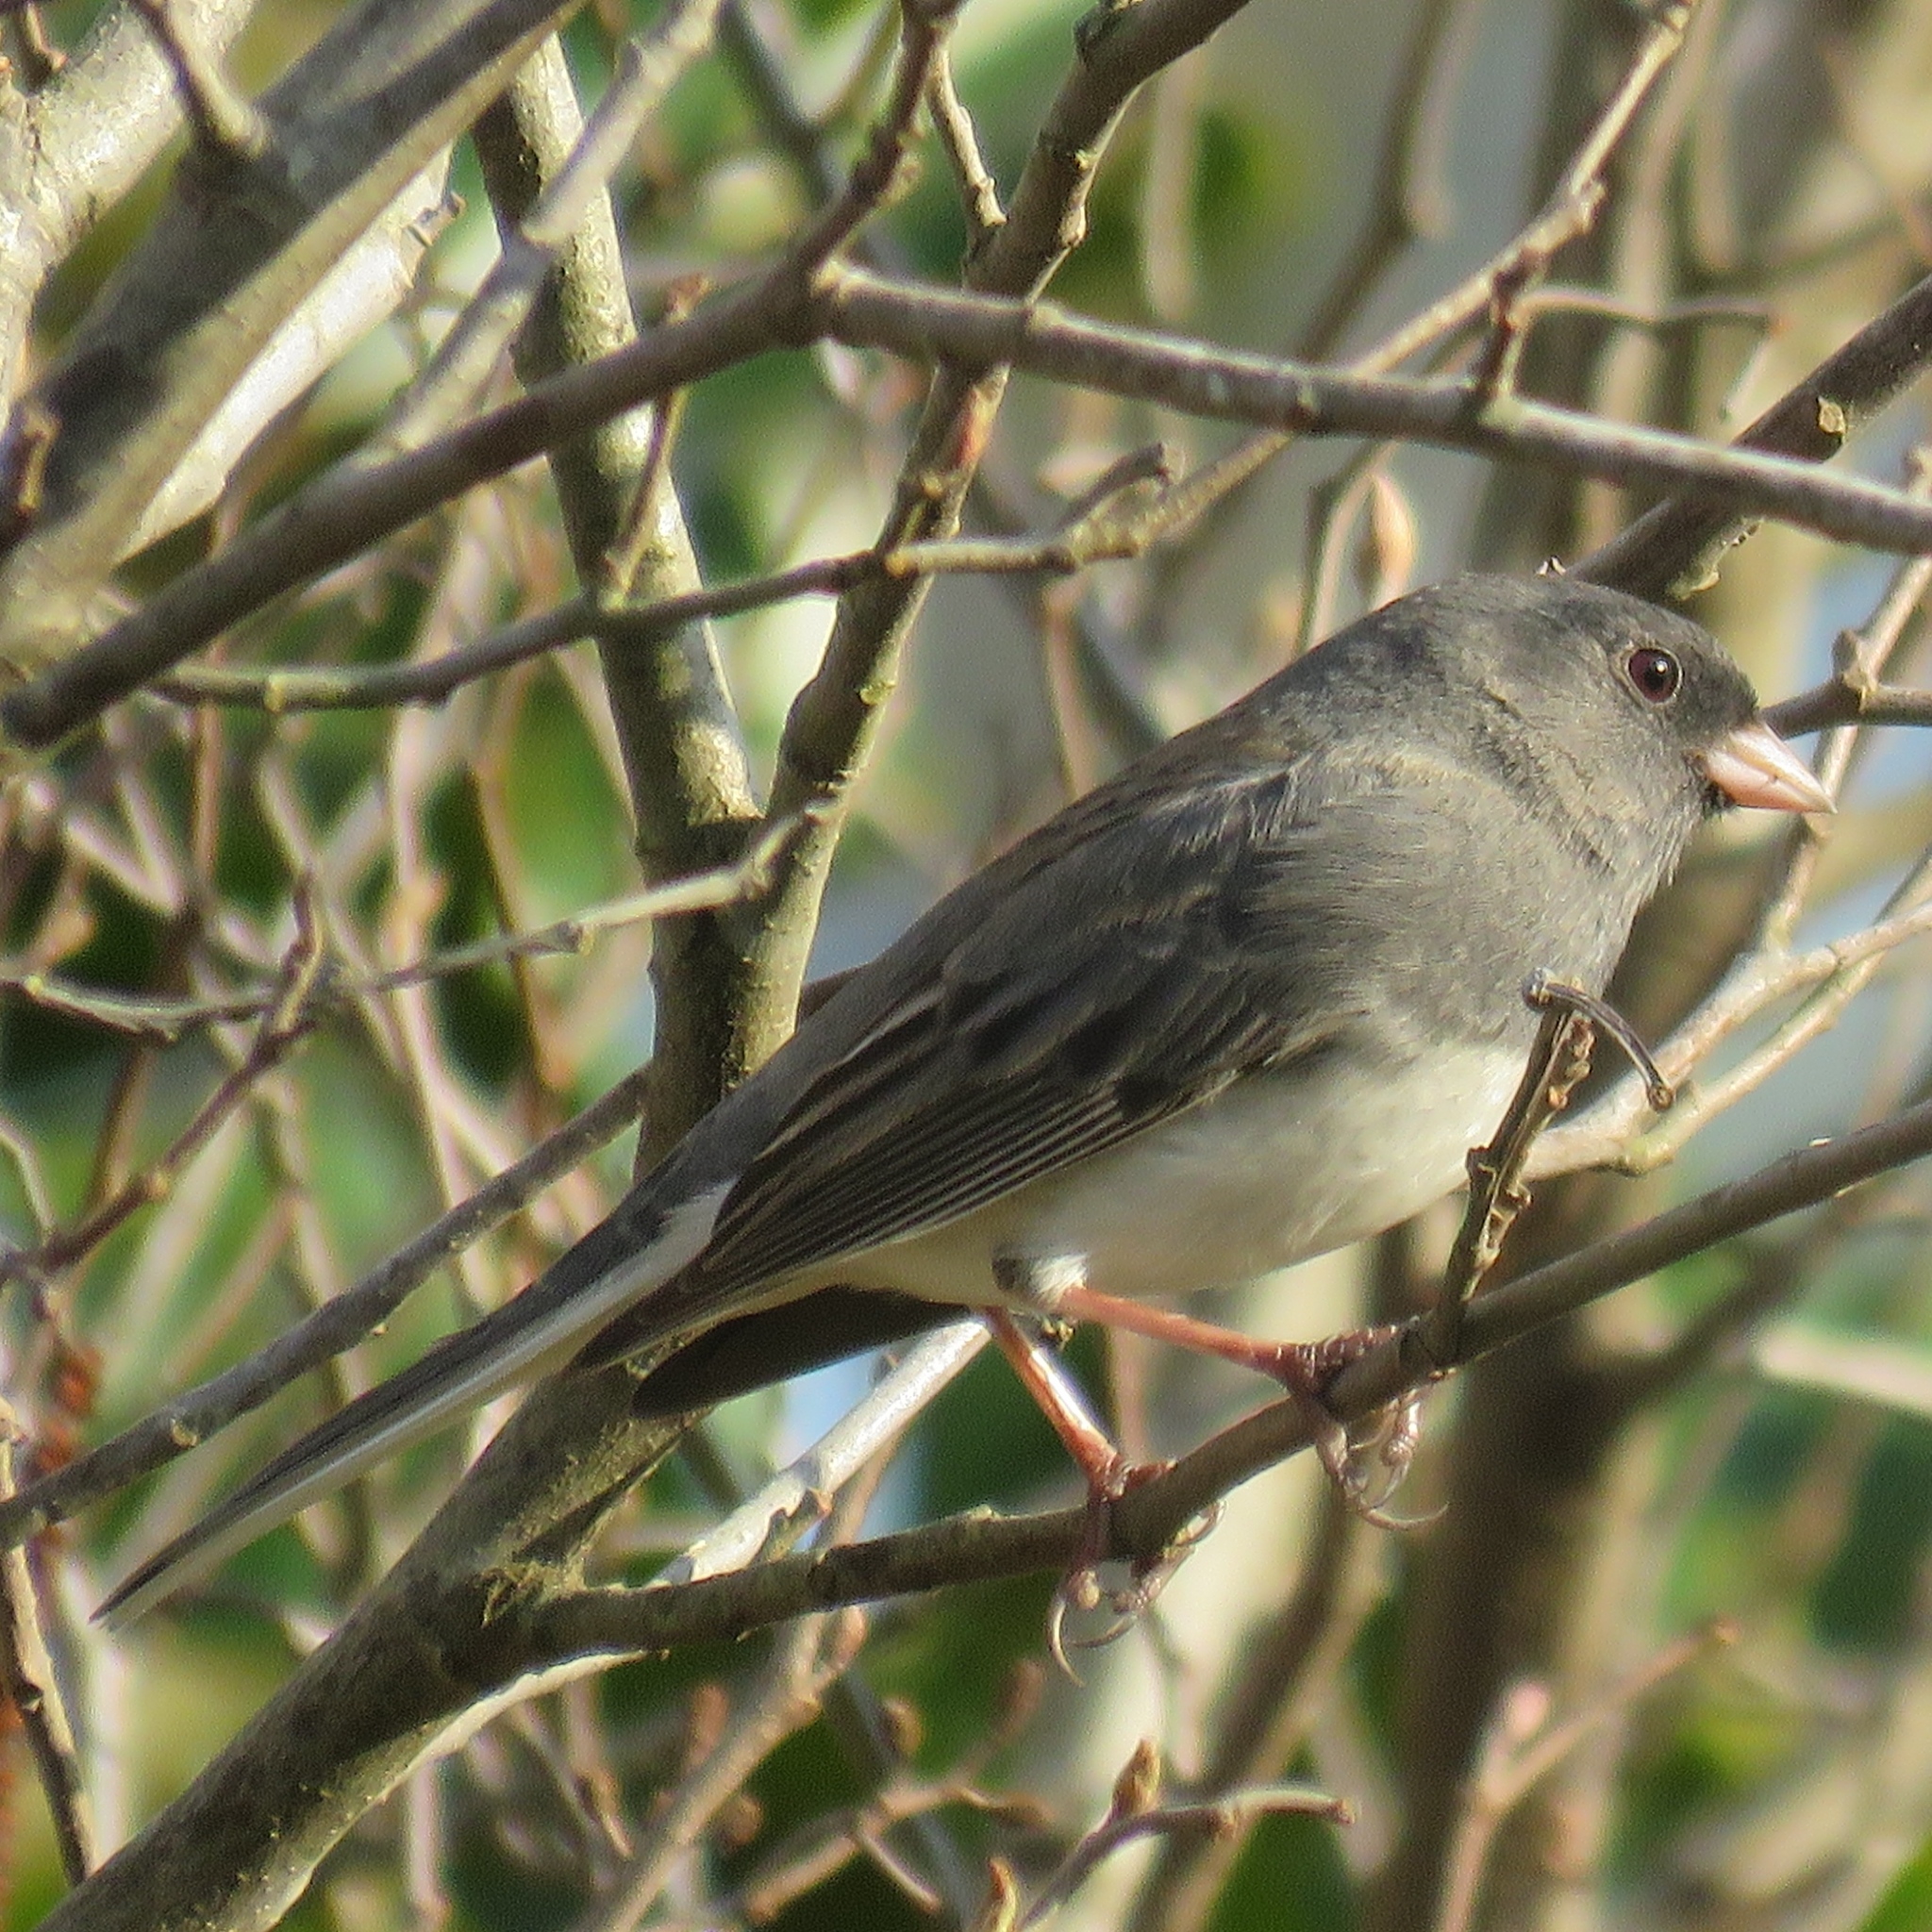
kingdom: Animalia
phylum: Chordata
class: Aves
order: Passeriformes
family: Passerellidae
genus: Junco
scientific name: Junco hyemalis
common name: Dark-eyed junco
